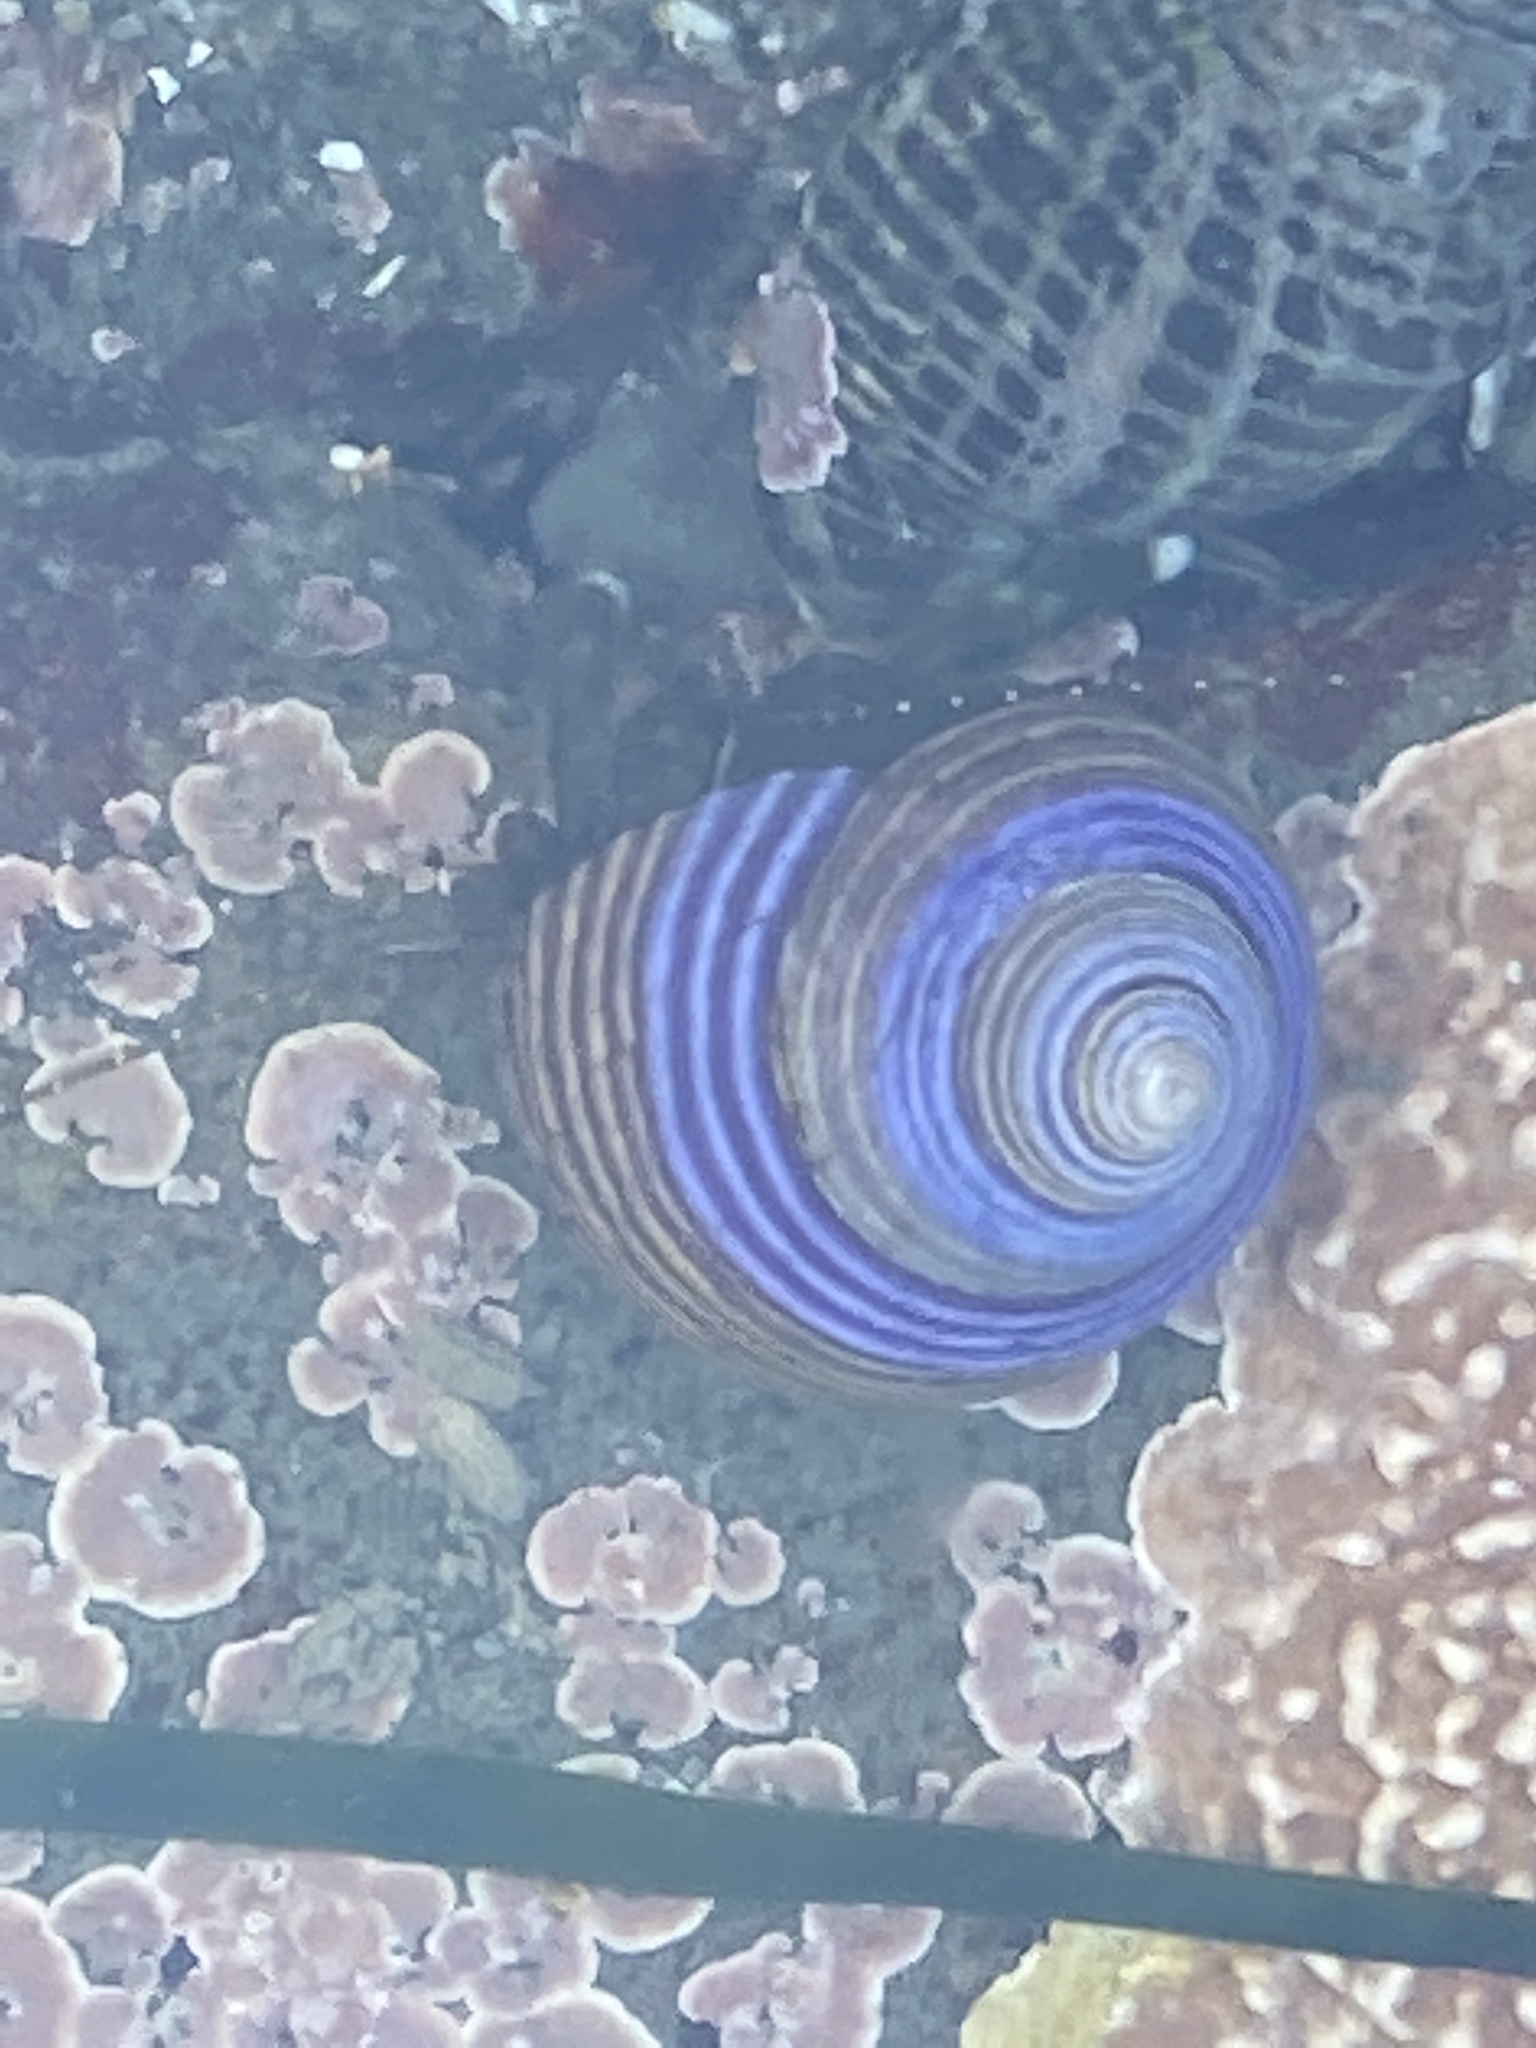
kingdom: Animalia
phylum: Mollusca
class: Gastropoda
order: Trochida
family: Calliostomatidae
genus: Calliostoma
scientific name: Calliostoma ligatum
